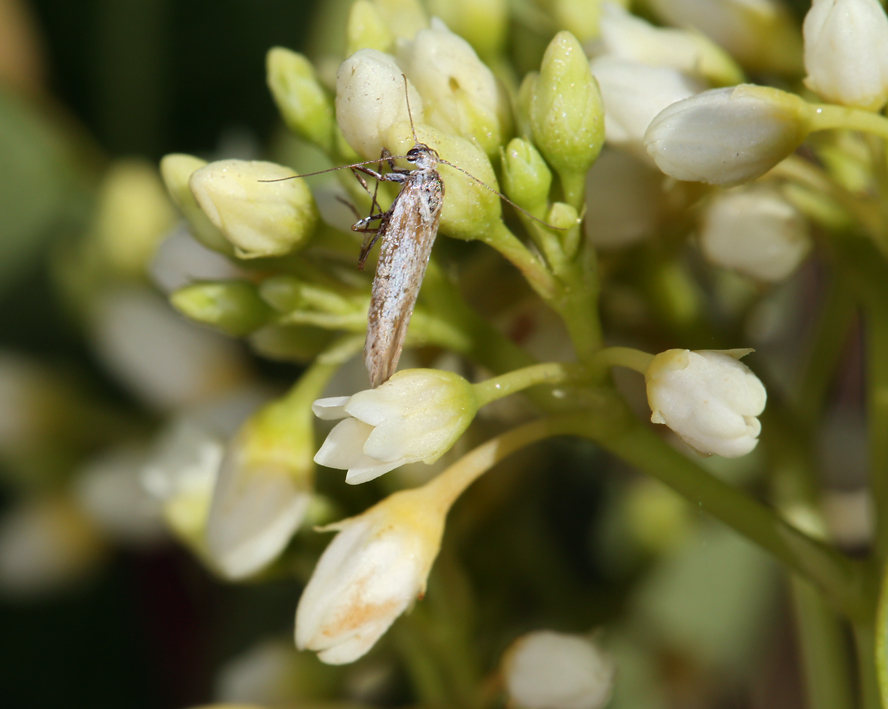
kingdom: Plantae
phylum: Tracheophyta
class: Magnoliopsida
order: Gentianales
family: Apocynaceae
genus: Apocynum
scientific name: Apocynum cannabinum
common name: Hemp dogbane
